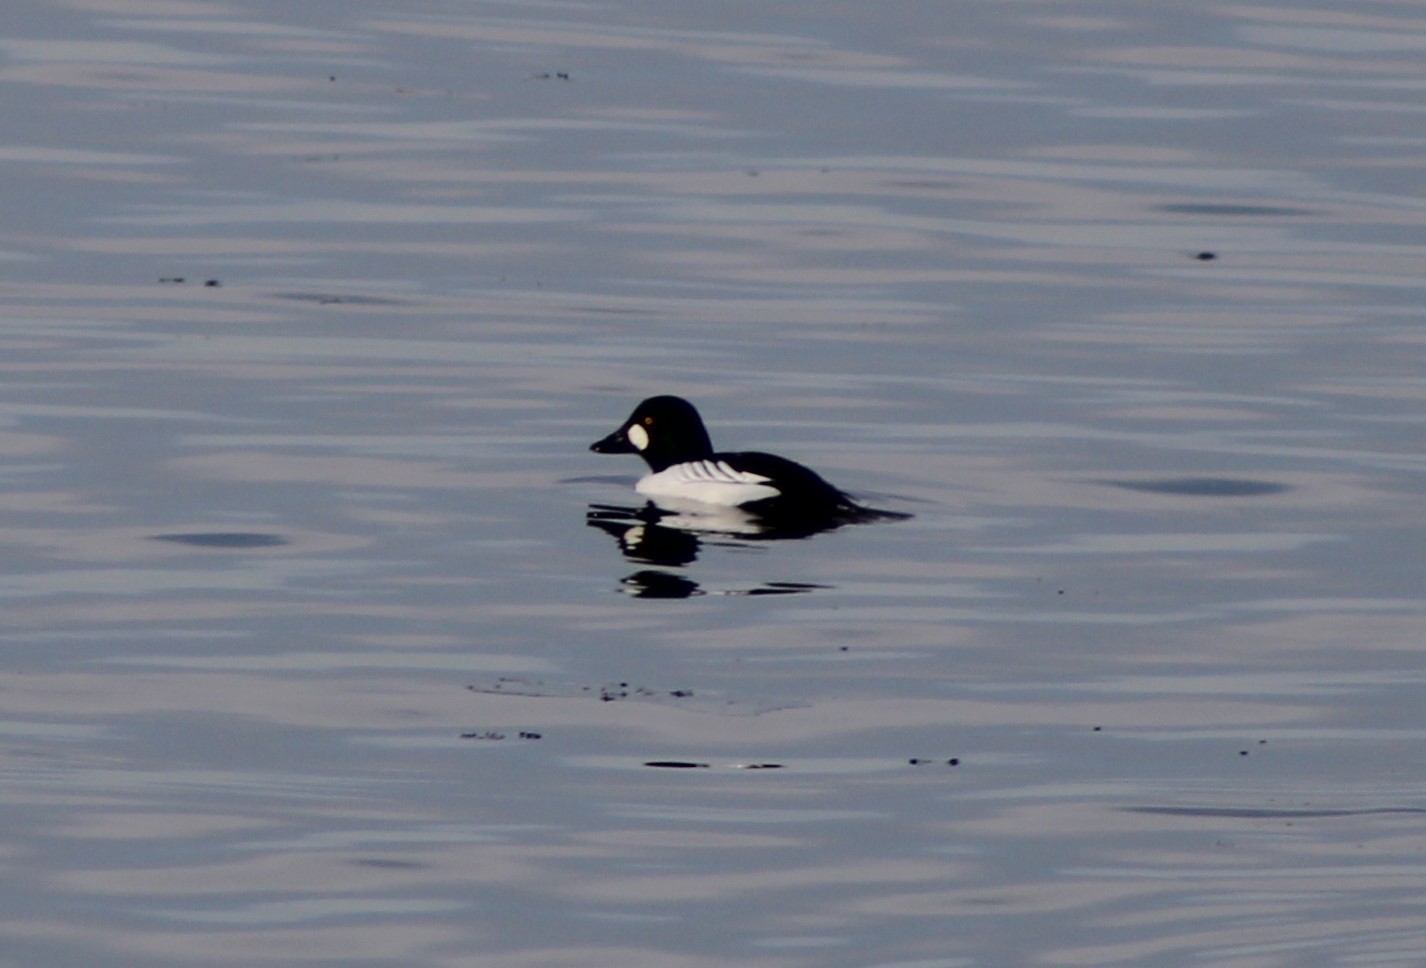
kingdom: Animalia
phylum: Chordata
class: Aves
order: Anseriformes
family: Anatidae
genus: Bucephala
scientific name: Bucephala clangula
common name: Common goldeneye
